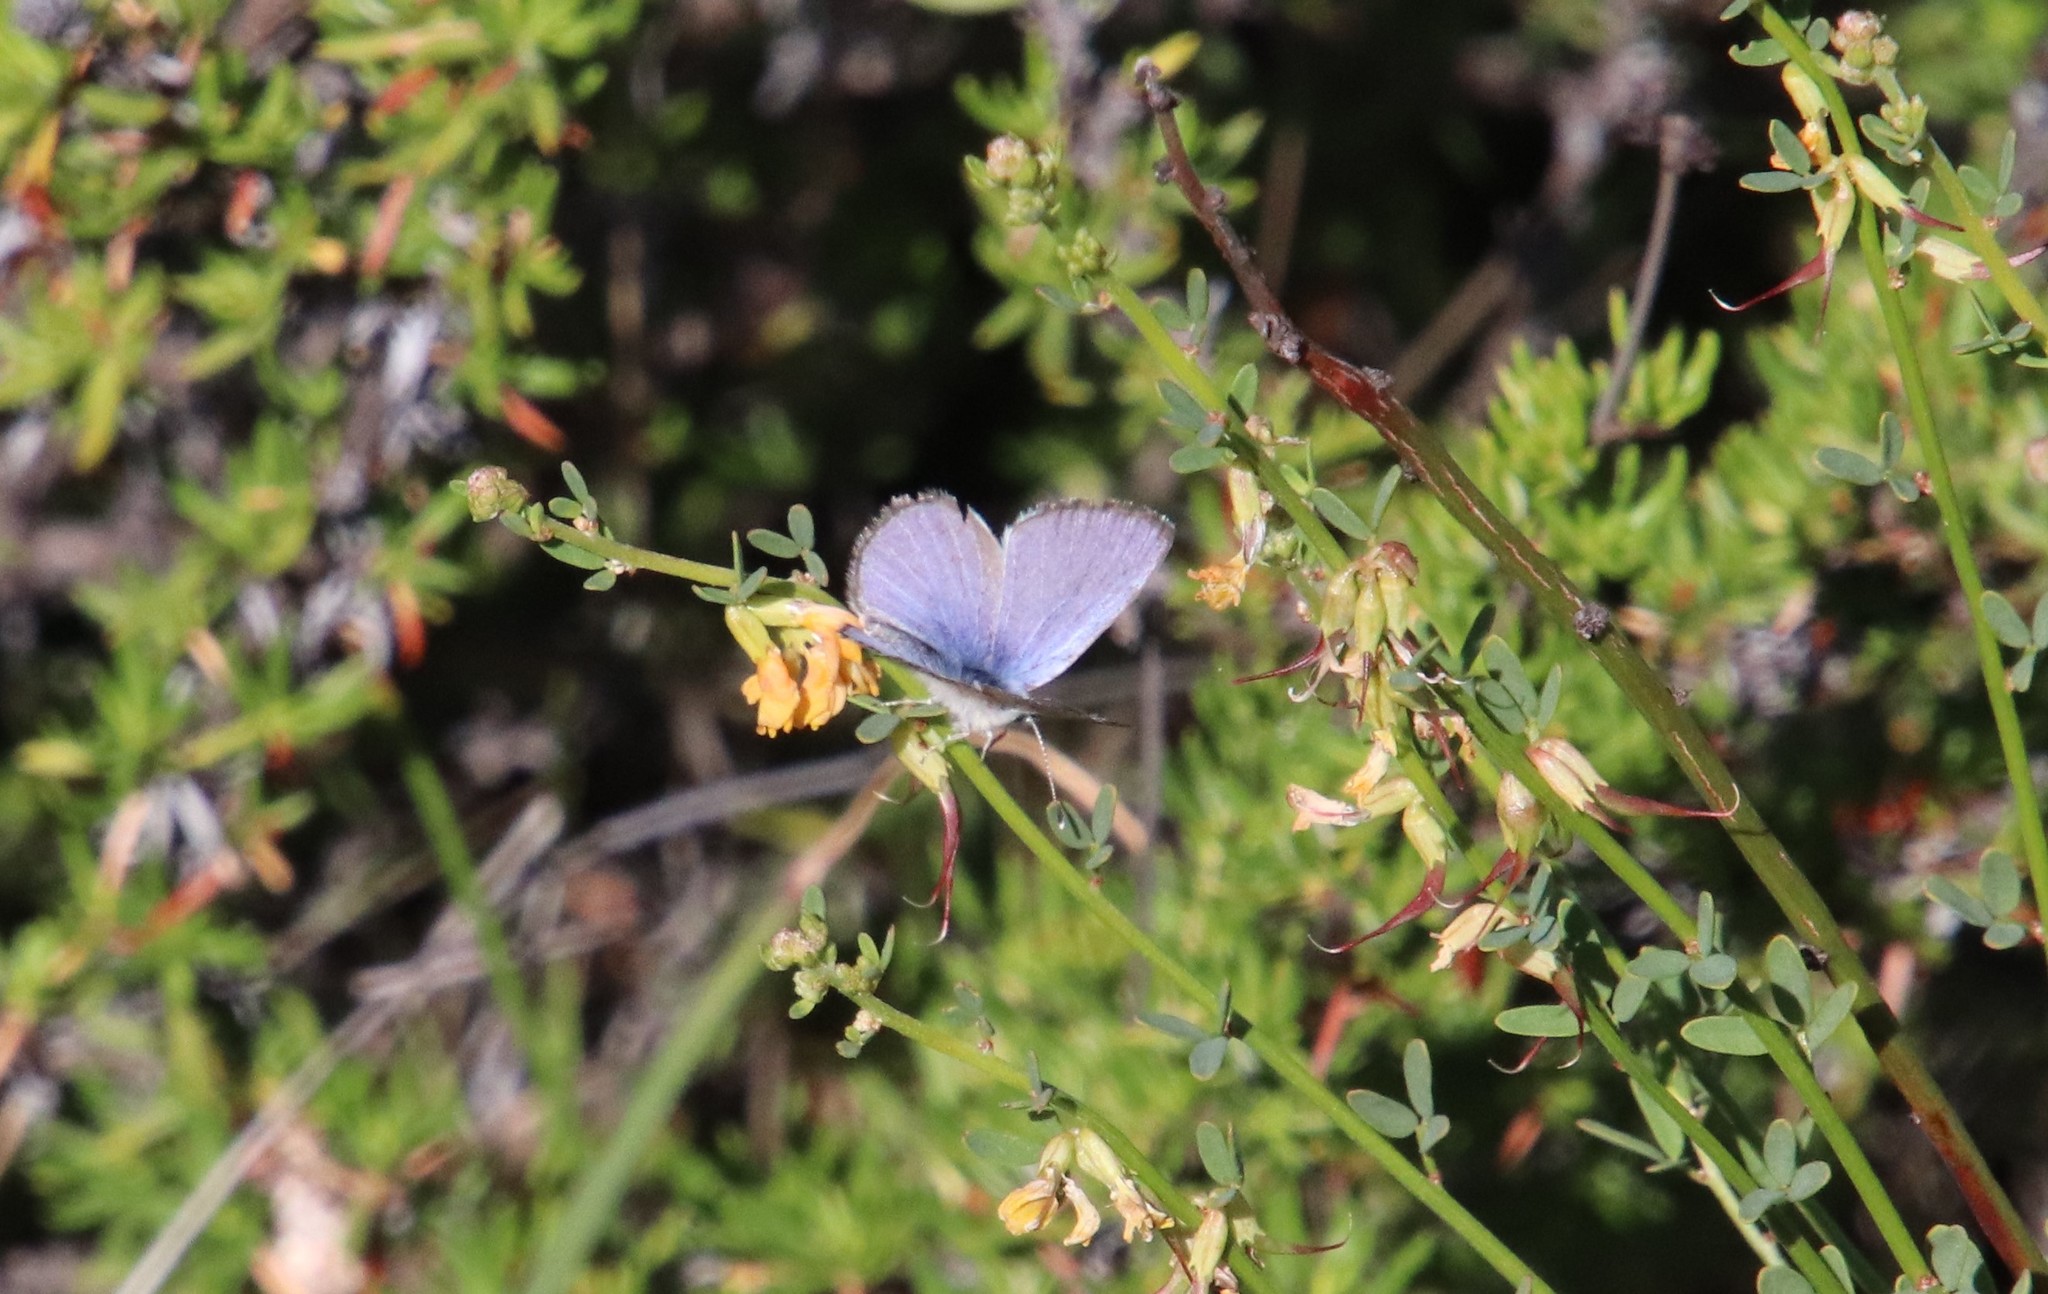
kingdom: Animalia
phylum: Arthropoda
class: Insecta
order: Lepidoptera
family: Lycaenidae
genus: Glaucopsyche
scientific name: Glaucopsyche lygdamus
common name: Silvery blue
